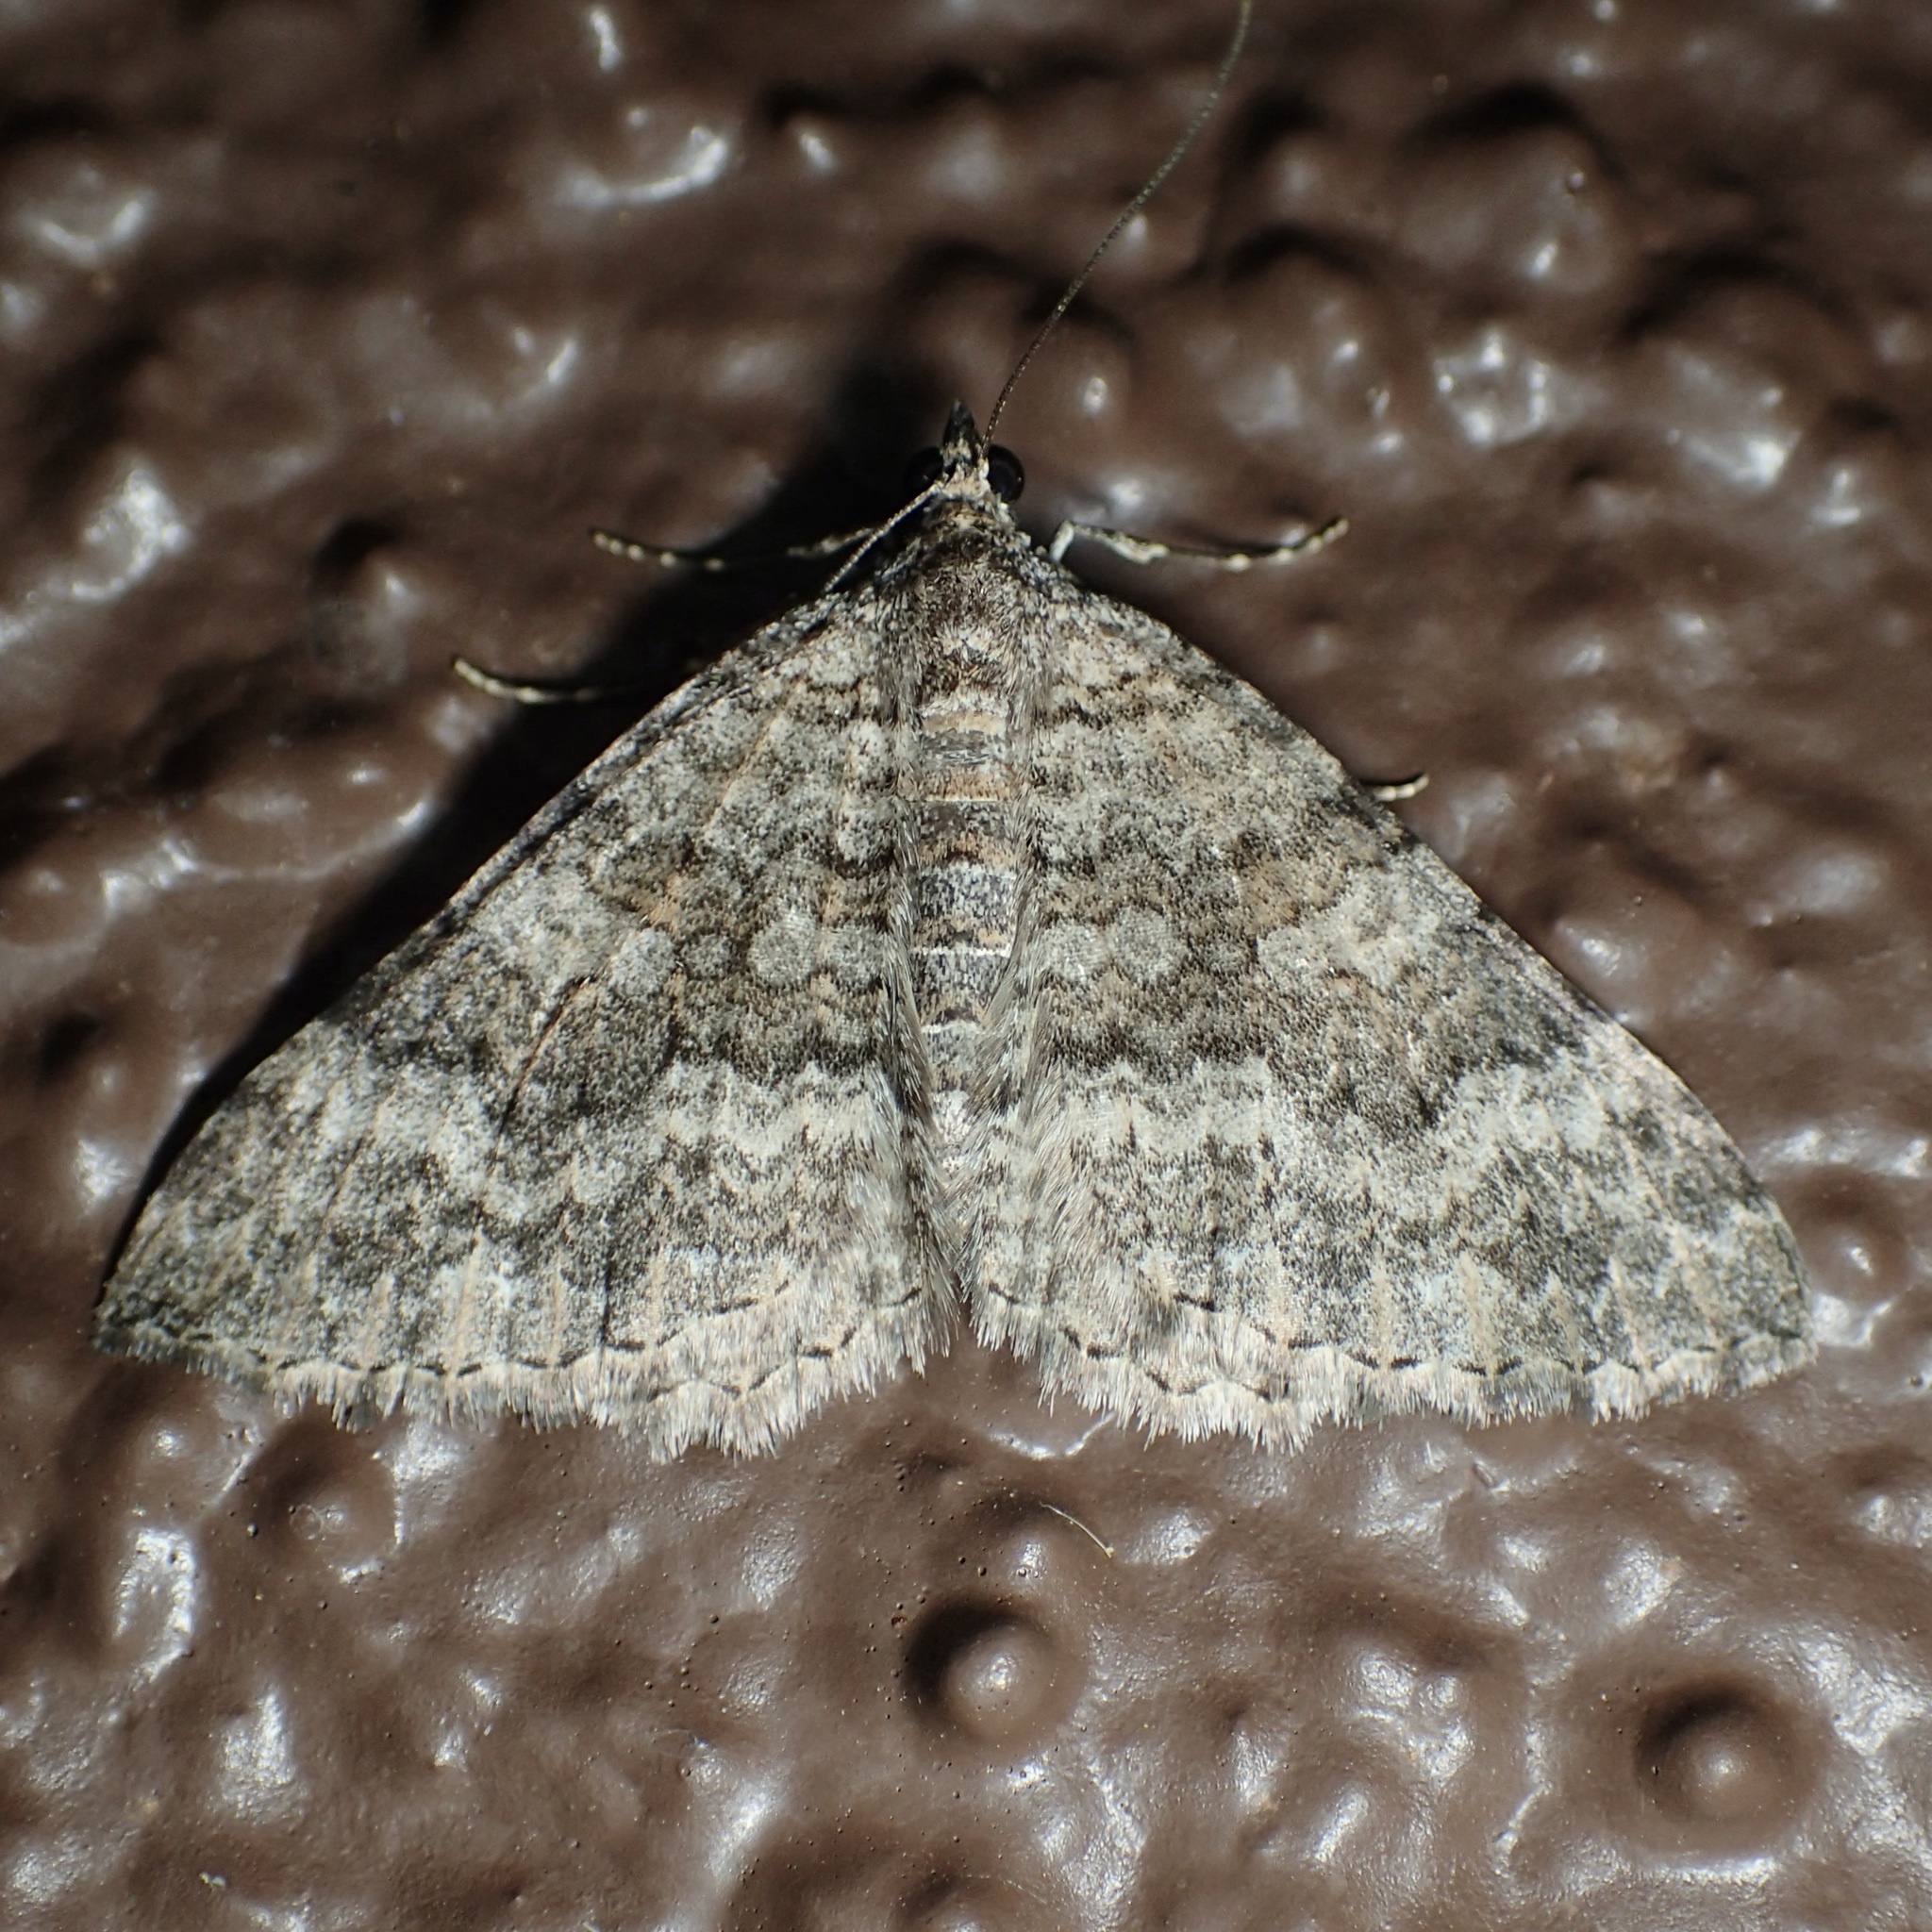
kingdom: Animalia
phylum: Arthropoda
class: Insecta
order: Lepidoptera
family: Geometridae
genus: Archirhoe
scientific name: Archirhoe neomexicana
